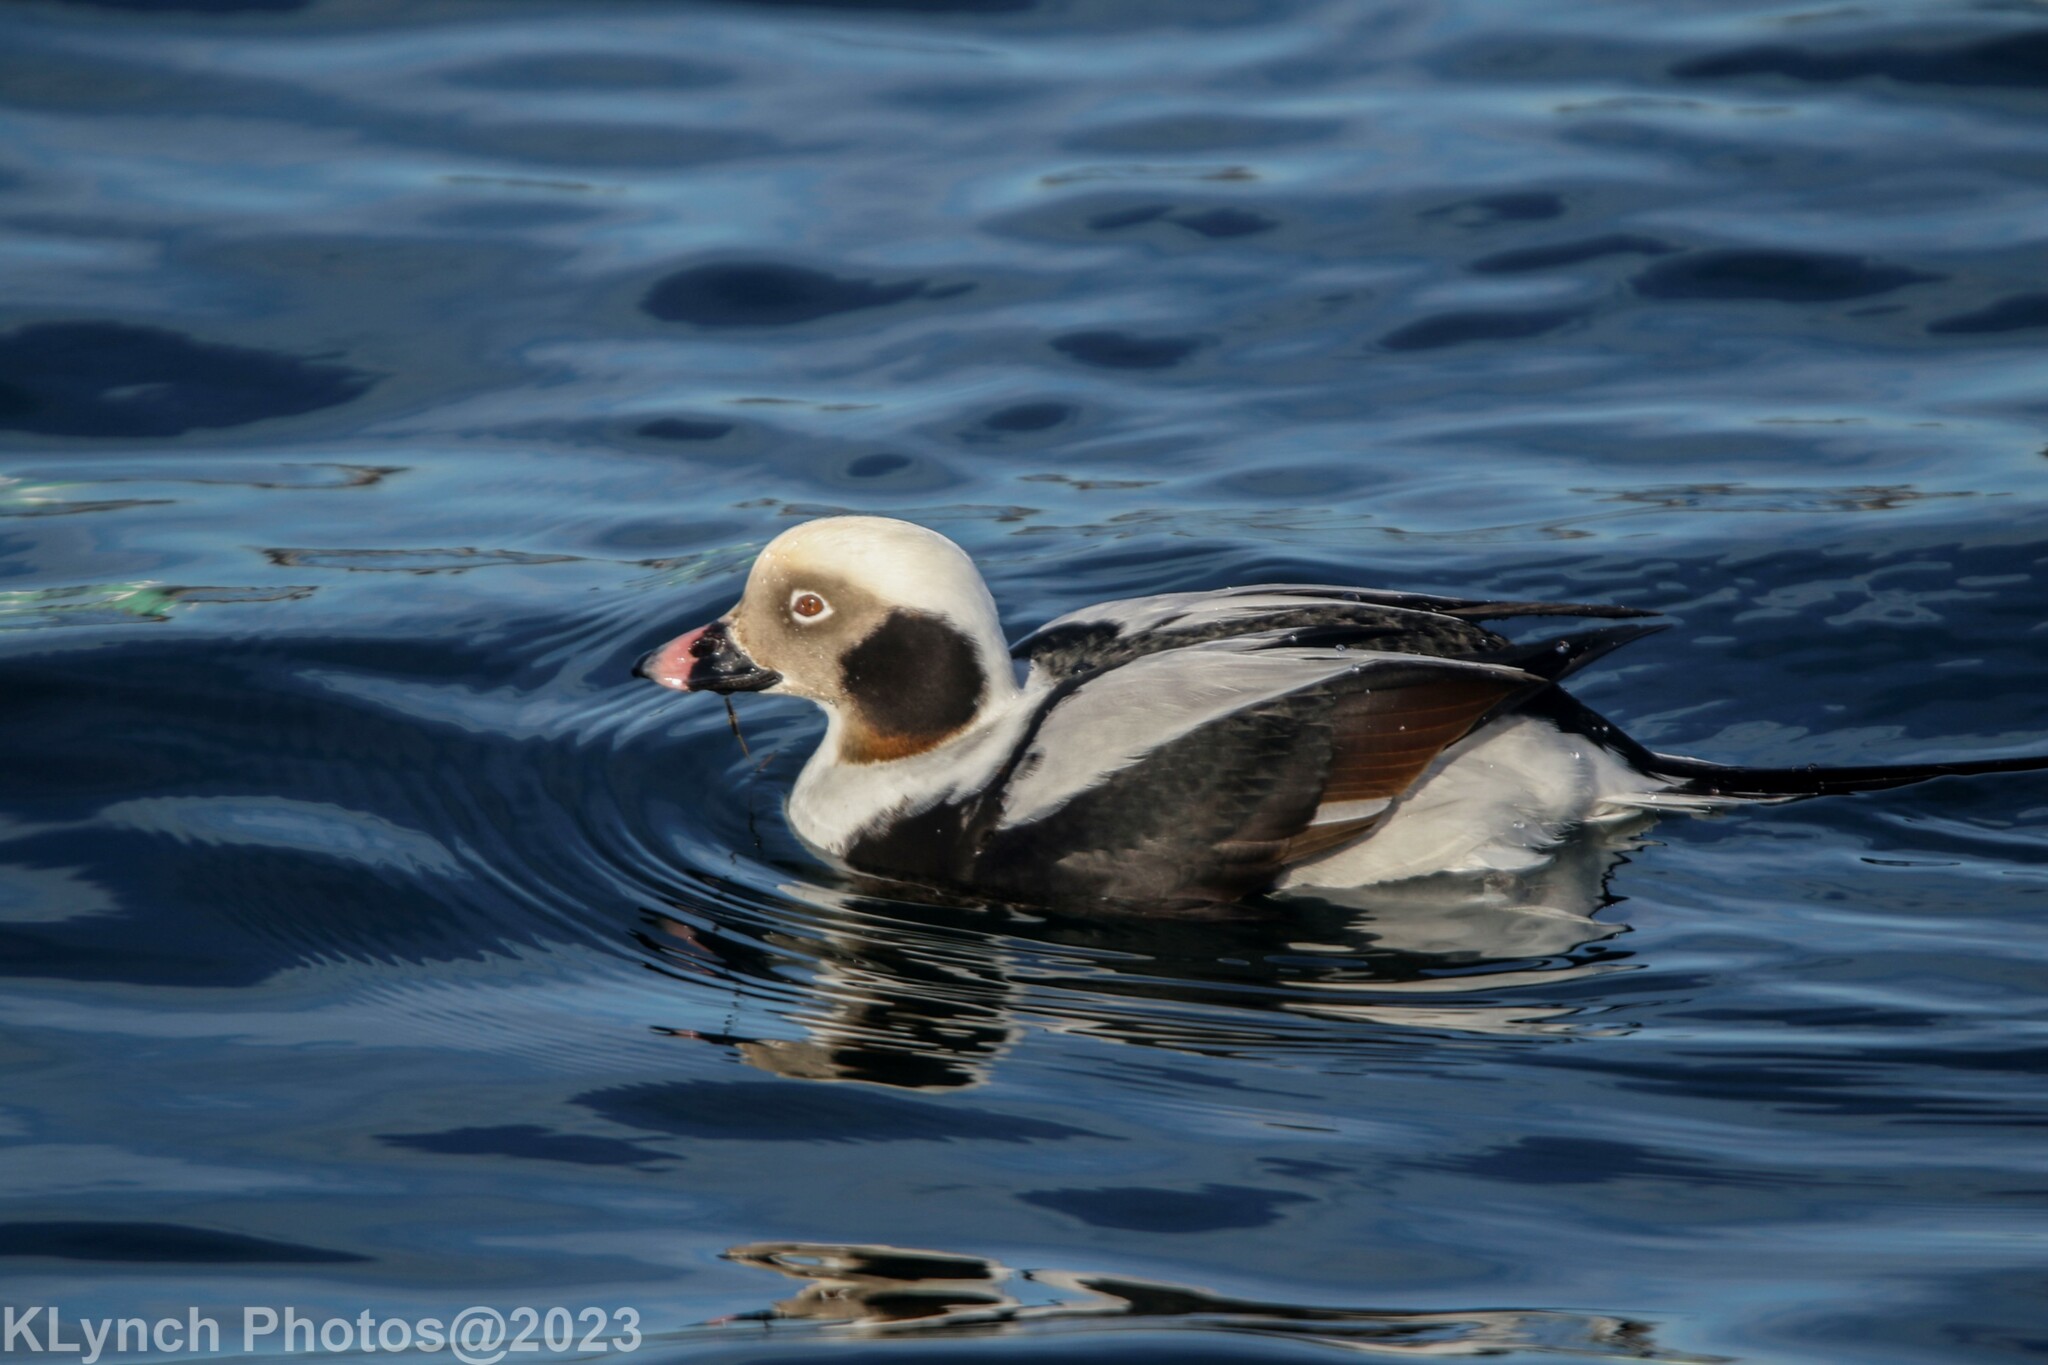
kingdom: Animalia
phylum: Chordata
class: Aves
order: Anseriformes
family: Anatidae
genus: Clangula
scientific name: Clangula hyemalis
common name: Long-tailed duck
